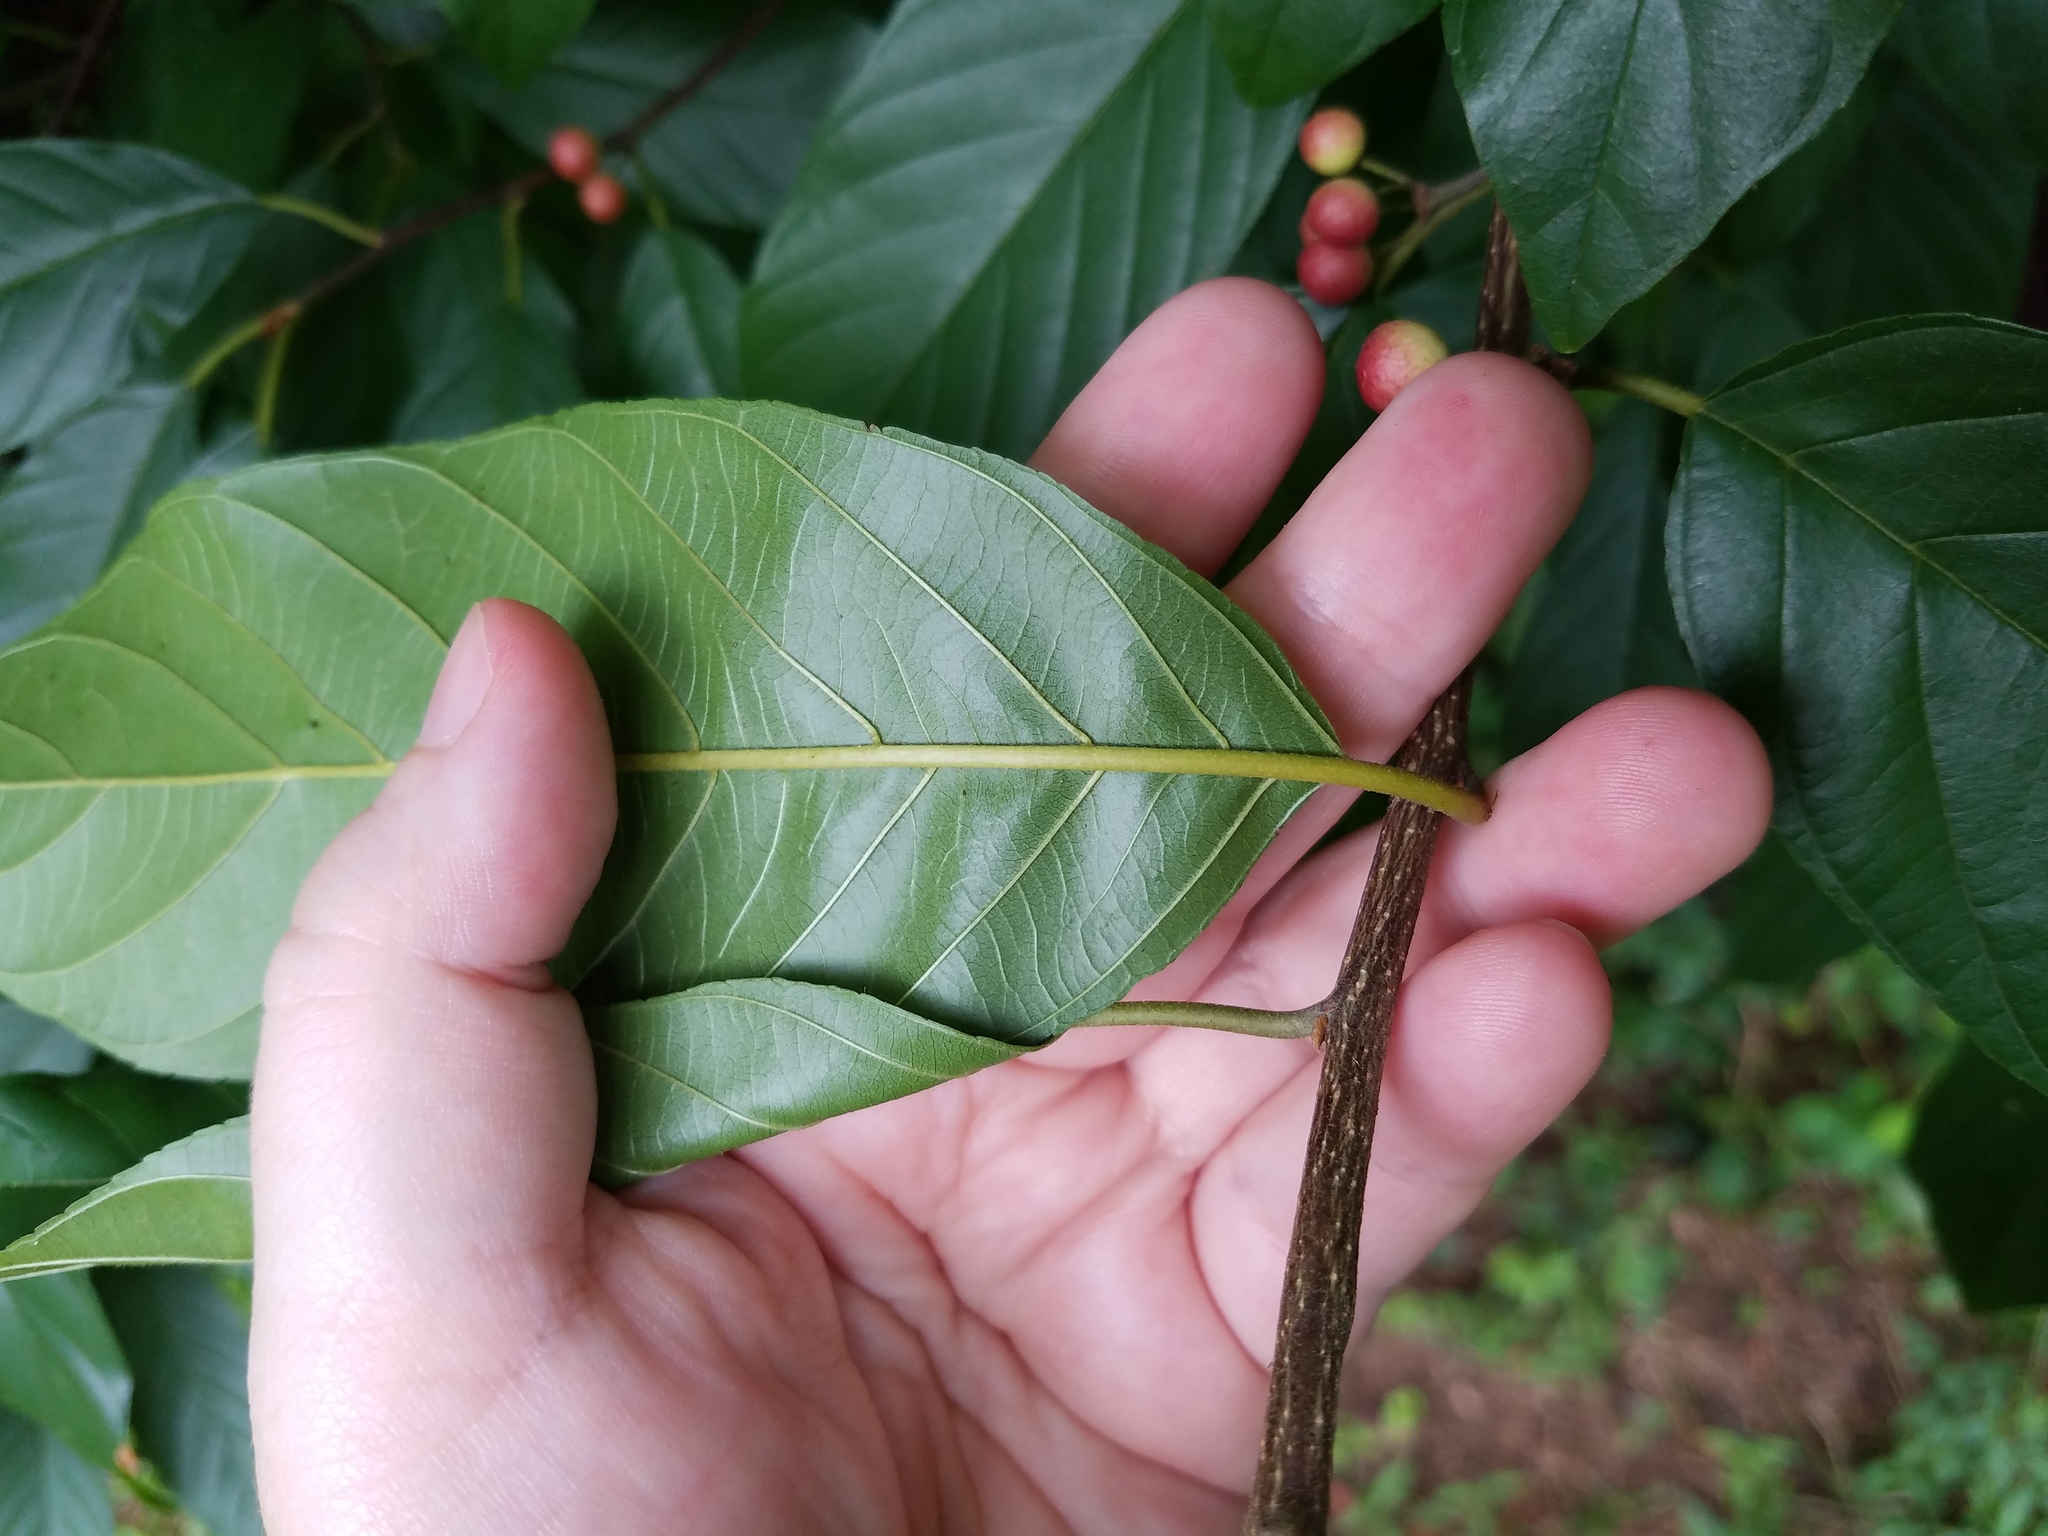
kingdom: Plantae
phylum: Tracheophyta
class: Magnoliopsida
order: Rosales
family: Rhamnaceae
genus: Frangula
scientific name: Frangula caroliniana
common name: Carolina buckthorn
